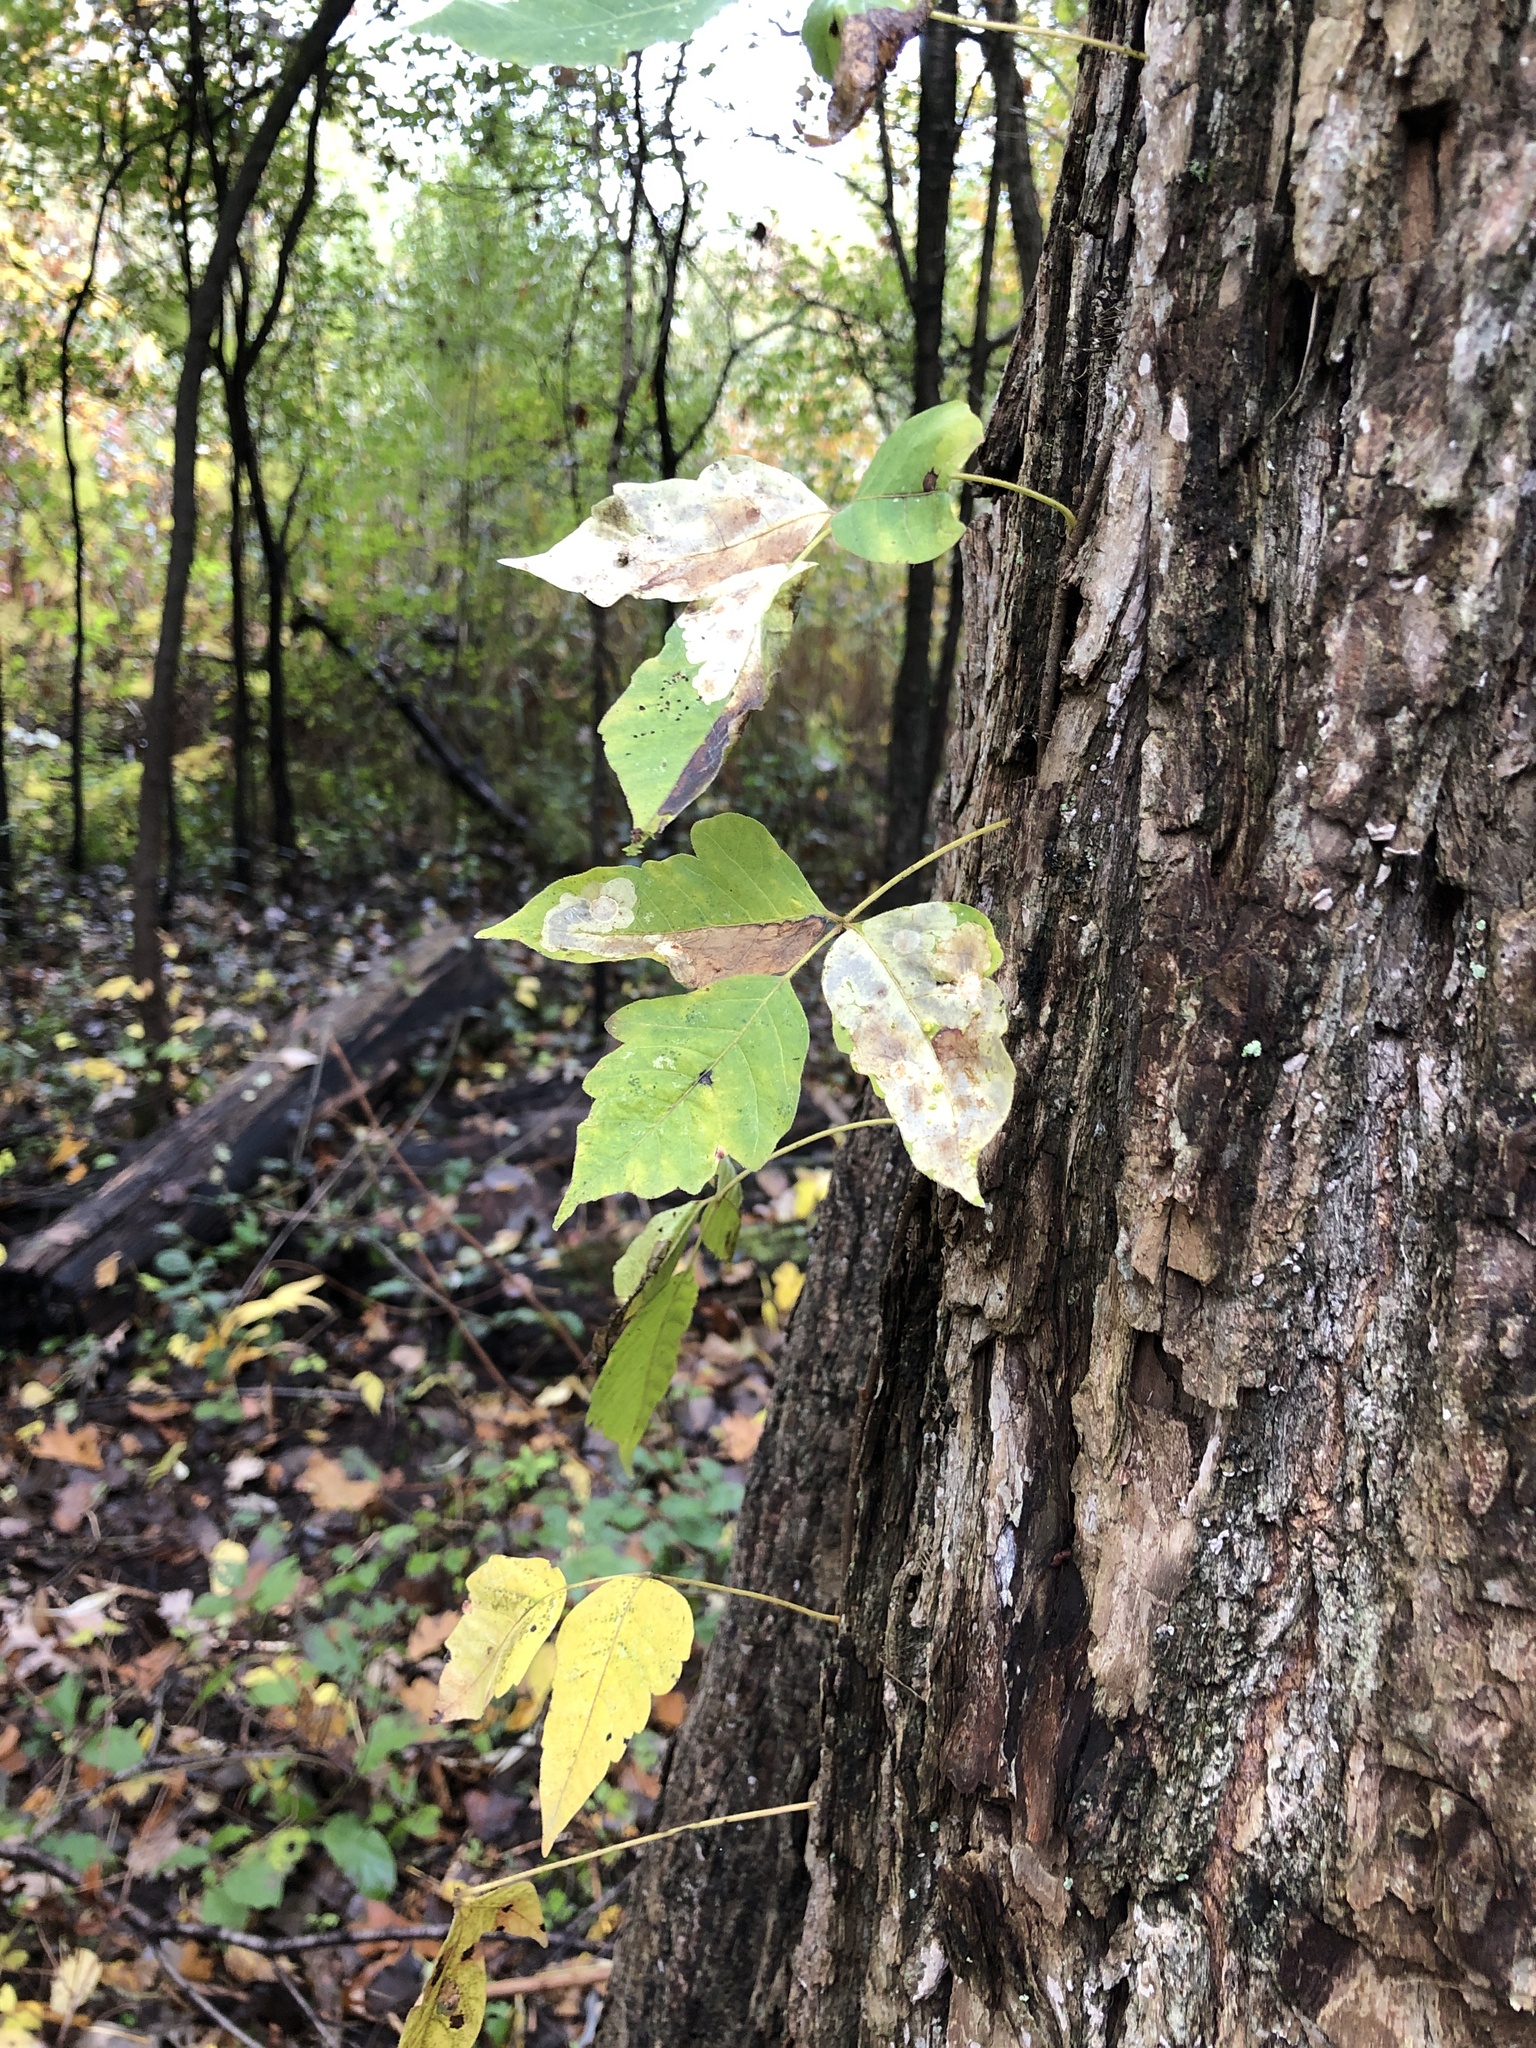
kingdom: Plantae
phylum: Tracheophyta
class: Magnoliopsida
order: Sapindales
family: Anacardiaceae
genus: Toxicodendron
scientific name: Toxicodendron radicans
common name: Poison ivy
